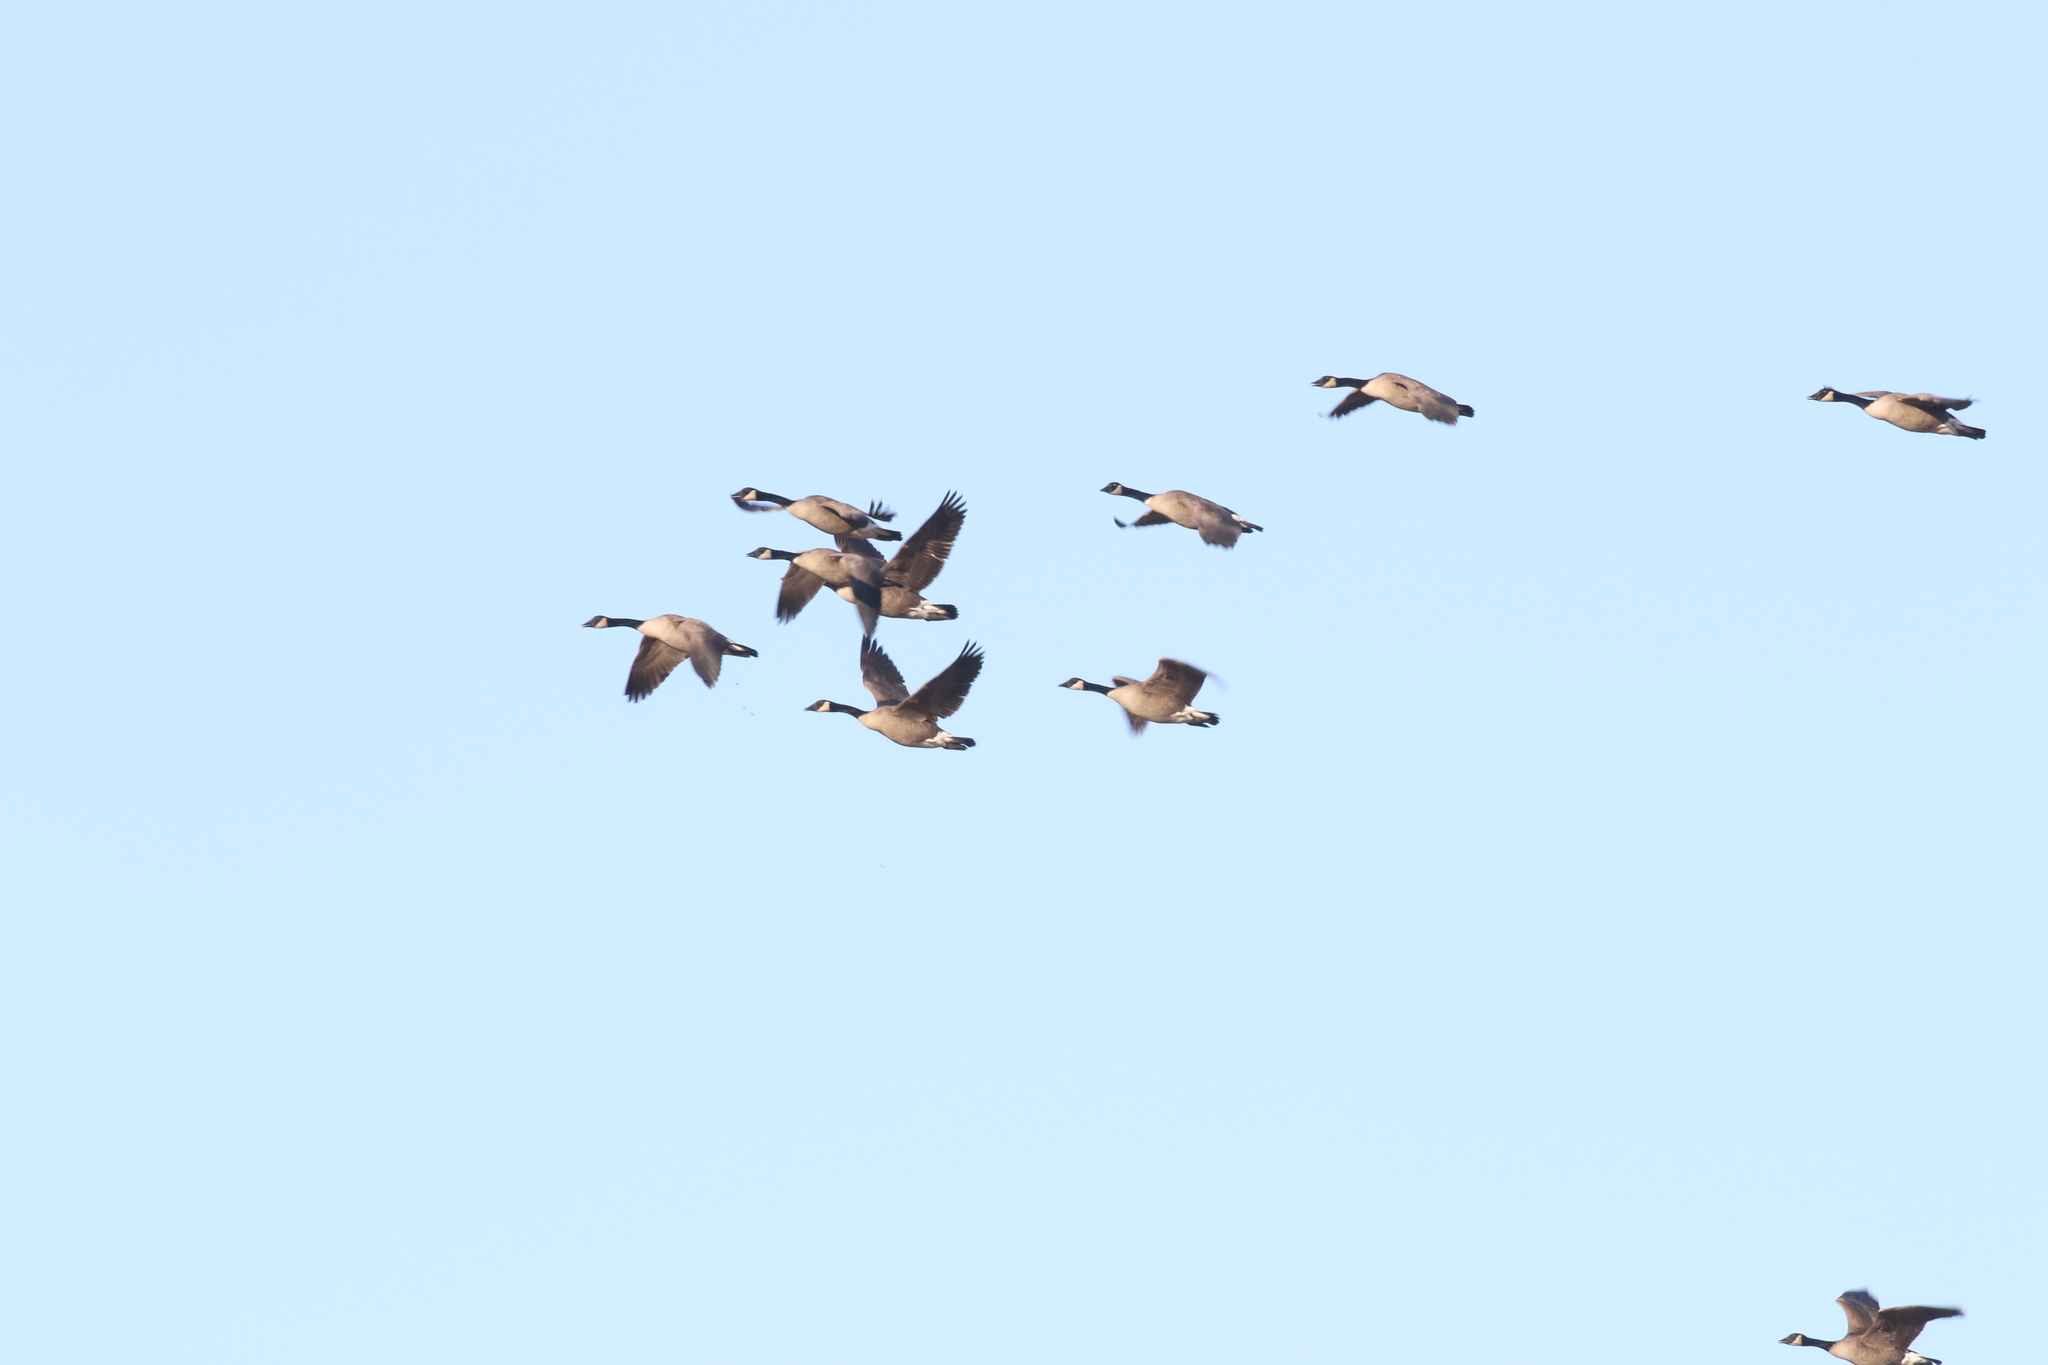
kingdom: Animalia
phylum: Chordata
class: Aves
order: Anseriformes
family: Anatidae
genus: Branta
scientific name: Branta canadensis
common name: Canada goose
